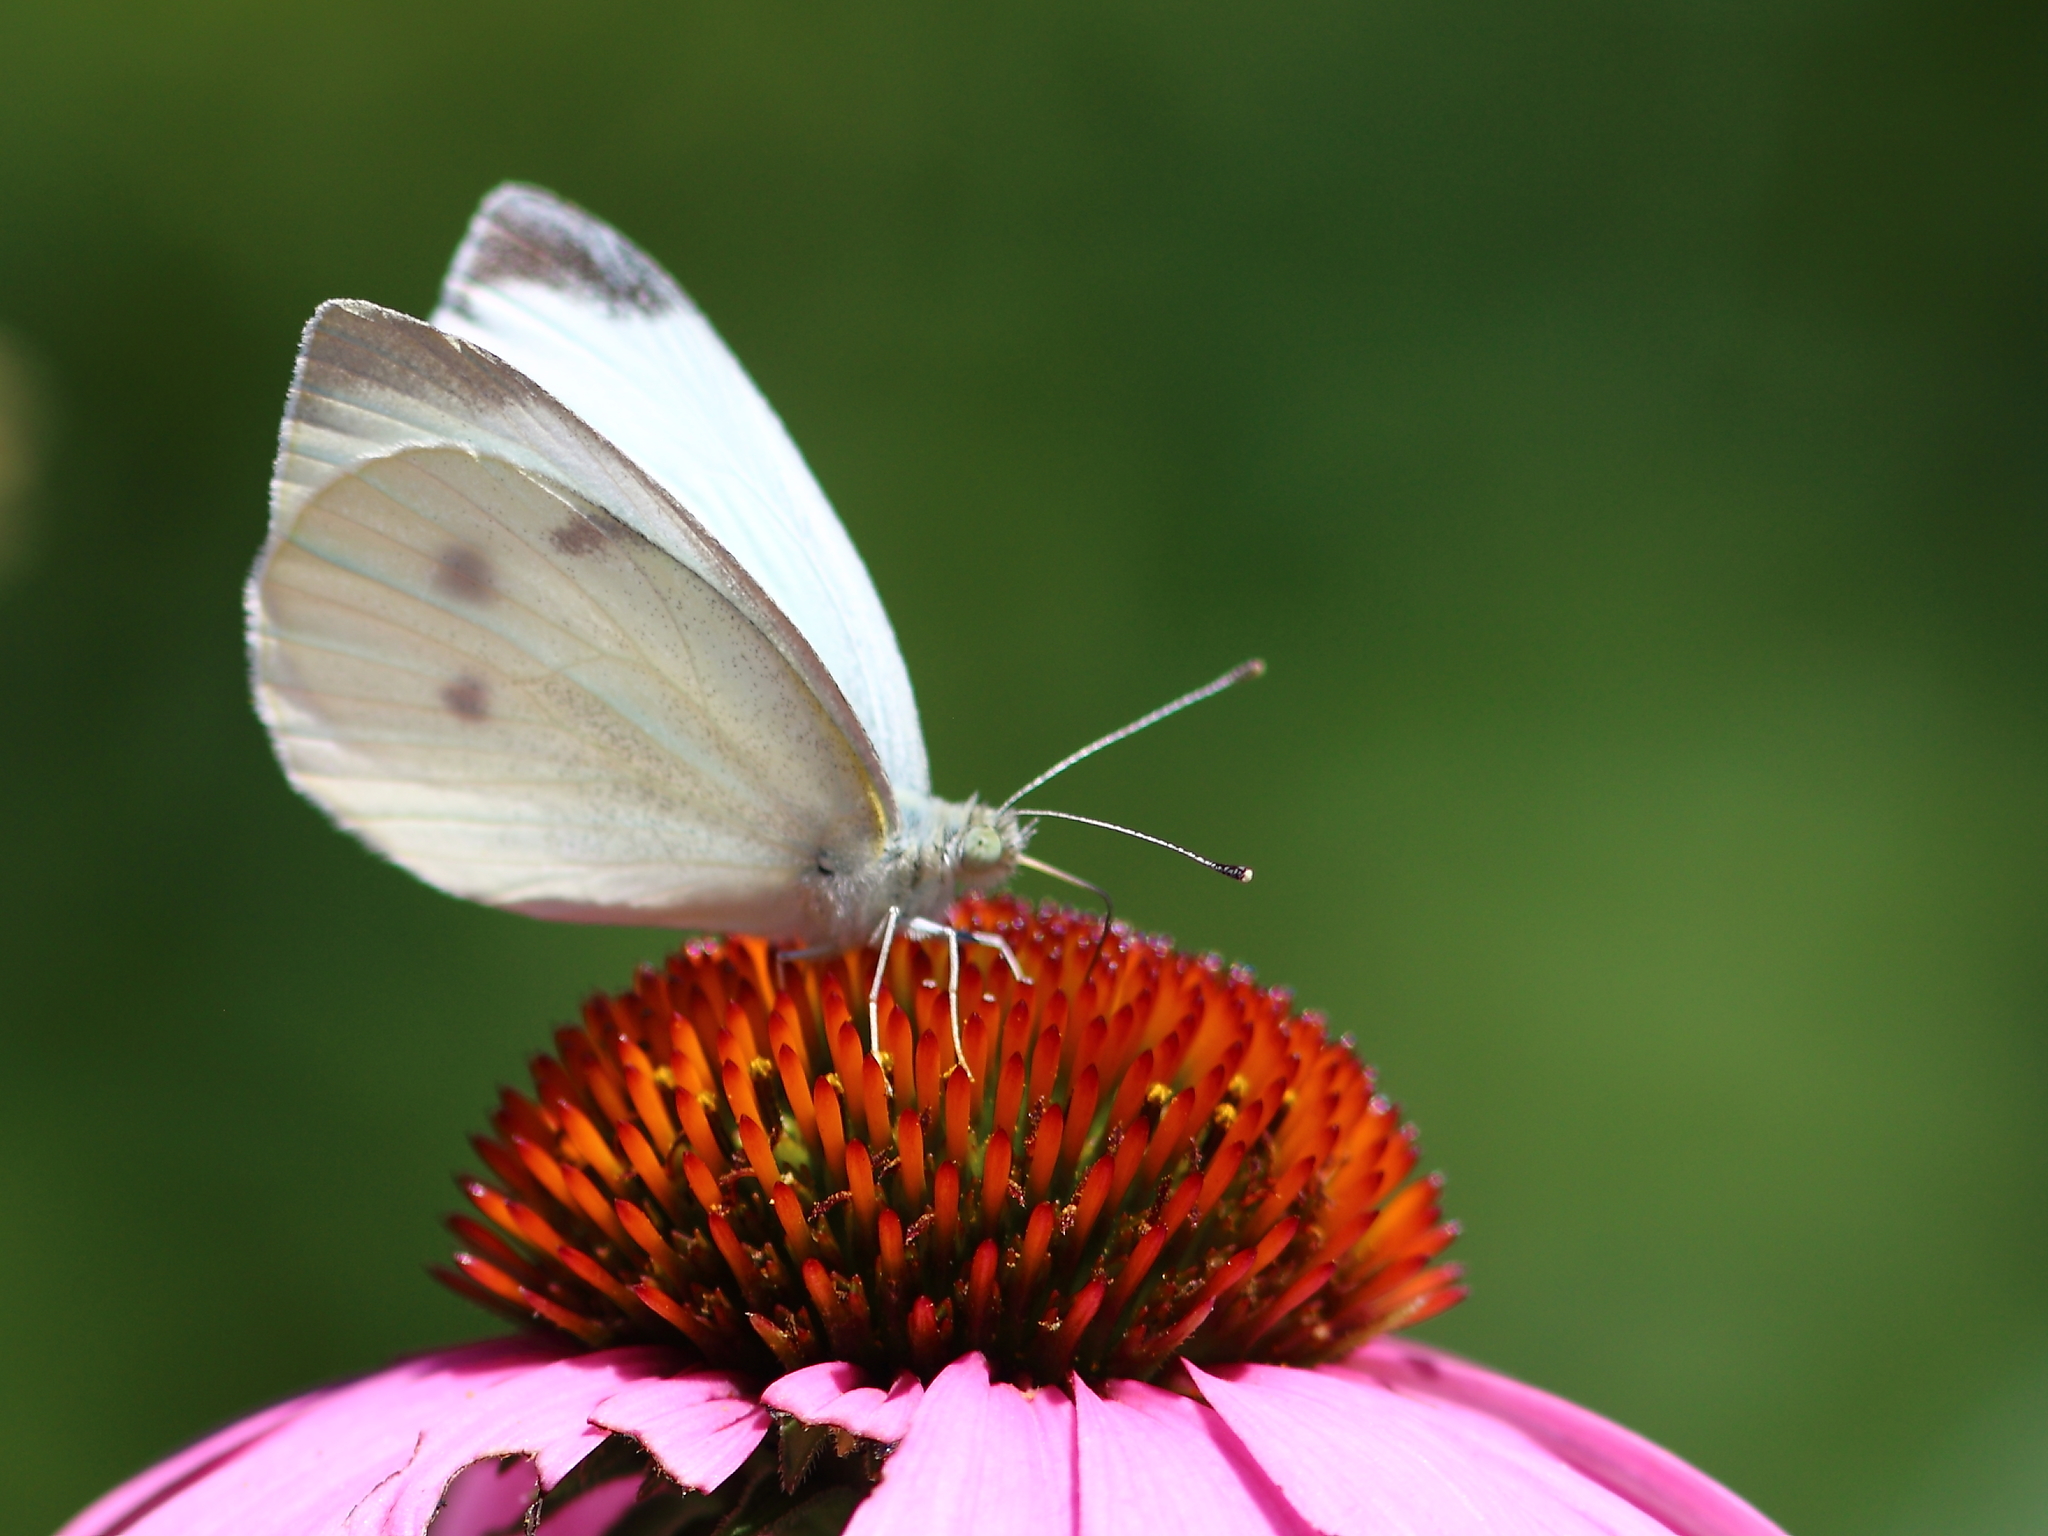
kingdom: Animalia
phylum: Arthropoda
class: Insecta
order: Lepidoptera
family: Pieridae
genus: Pieris
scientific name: Pieris rapae
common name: Small white
